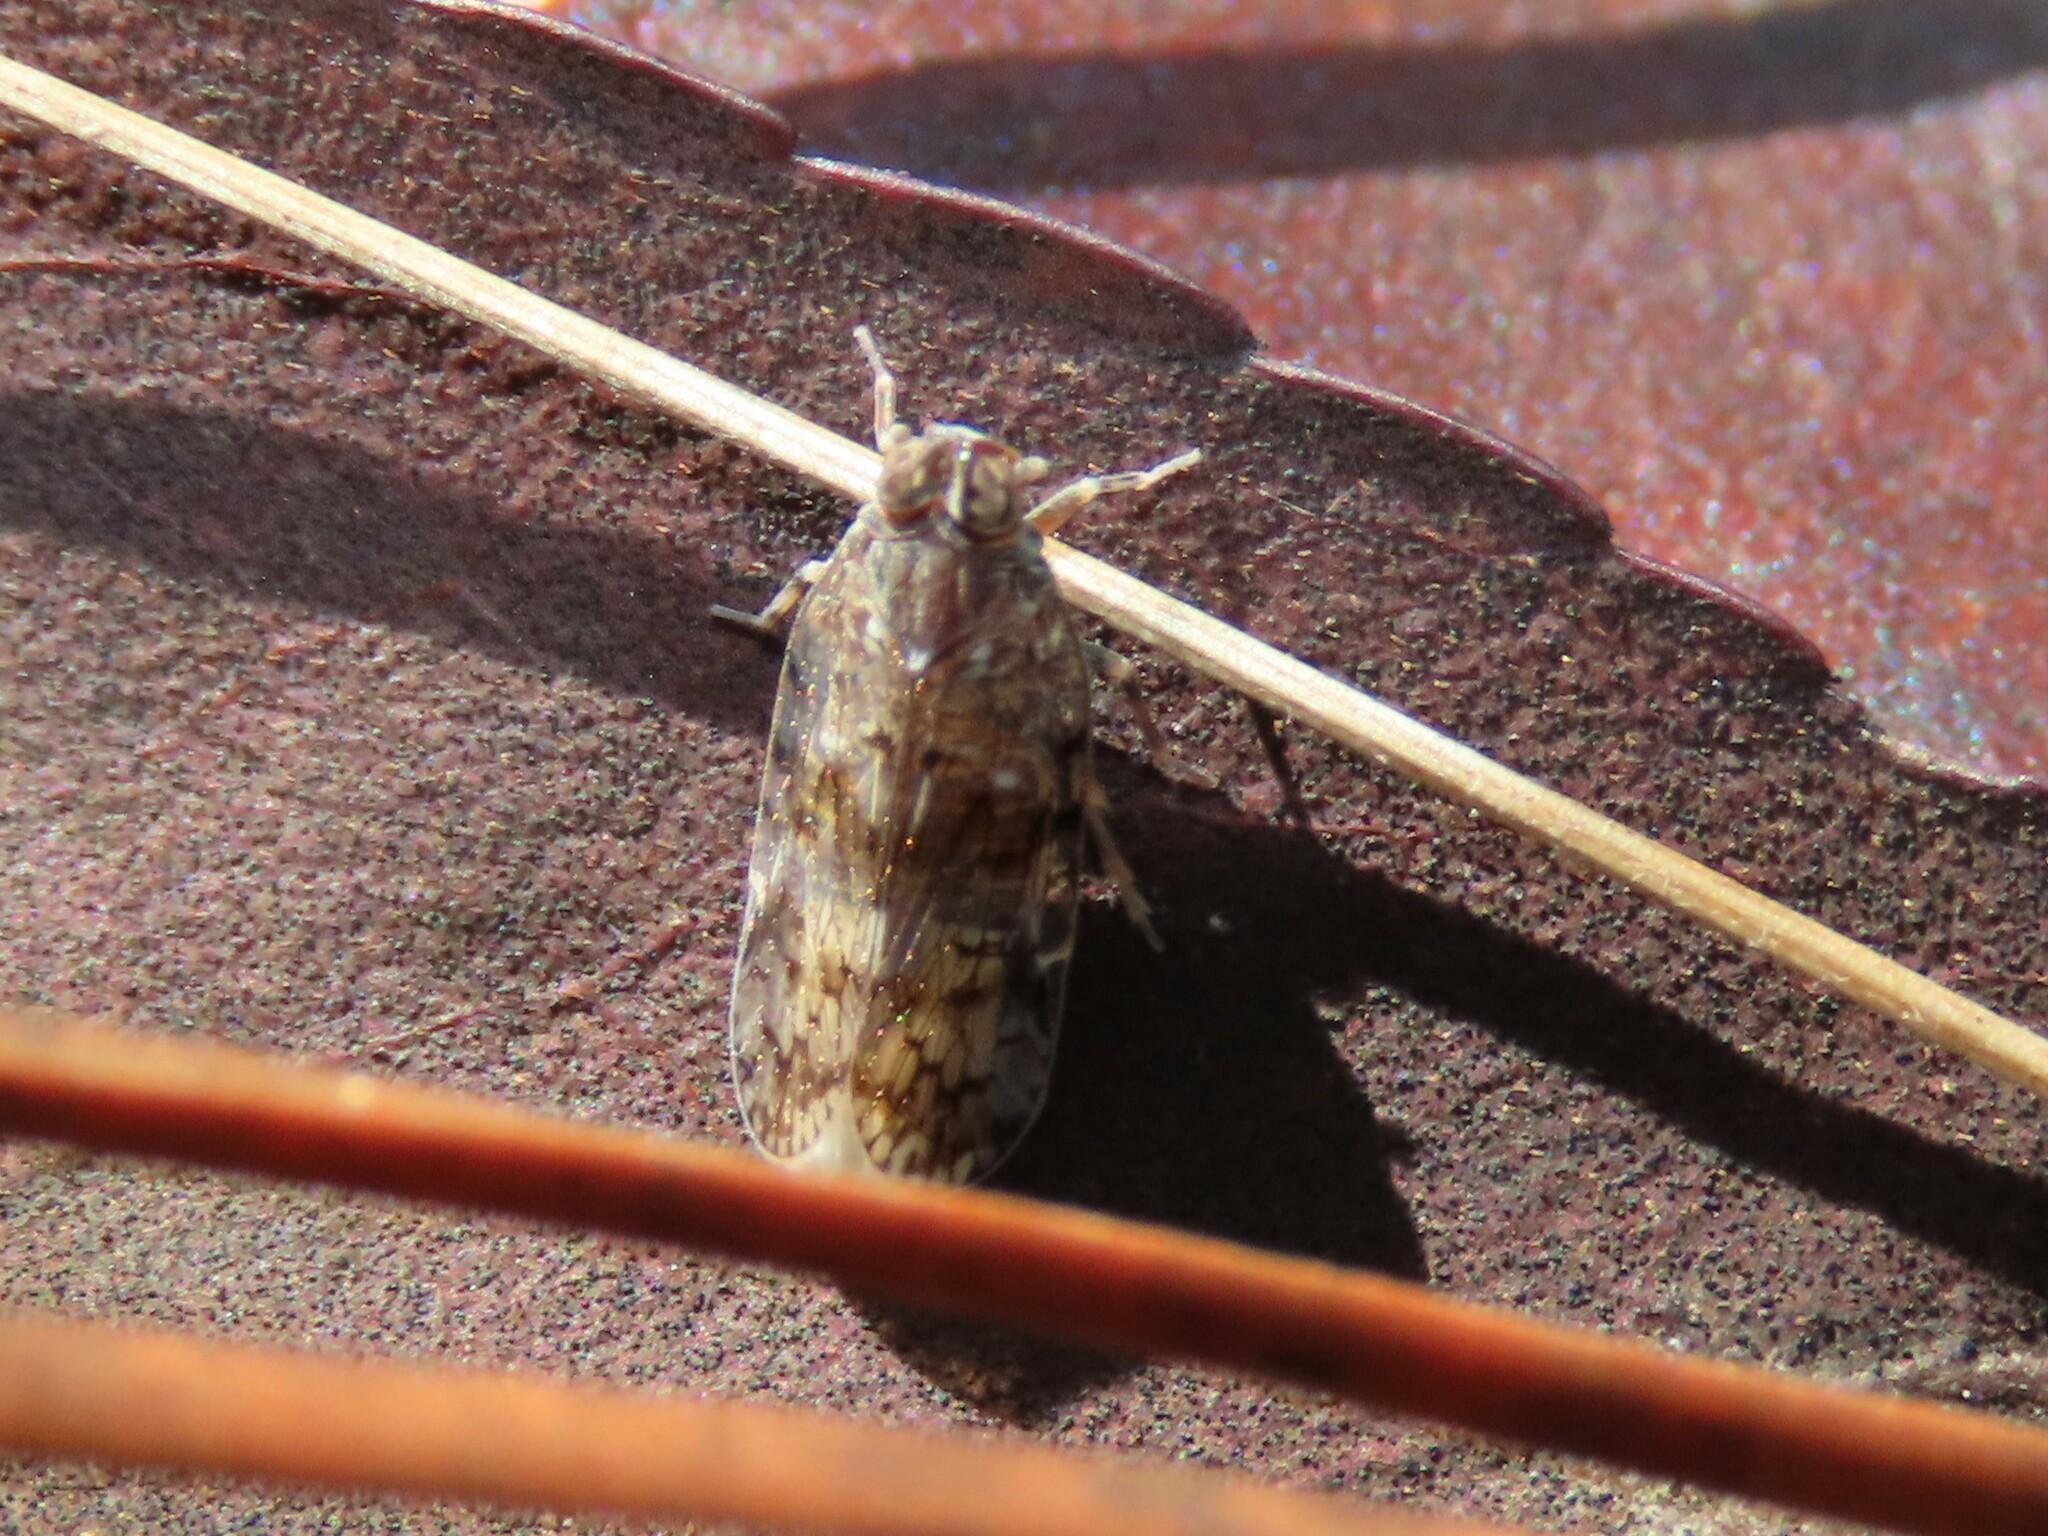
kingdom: Animalia
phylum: Arthropoda
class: Insecta
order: Hemiptera
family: Cixiidae
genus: Melanoliarus
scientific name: Melanoliarus vicarius
